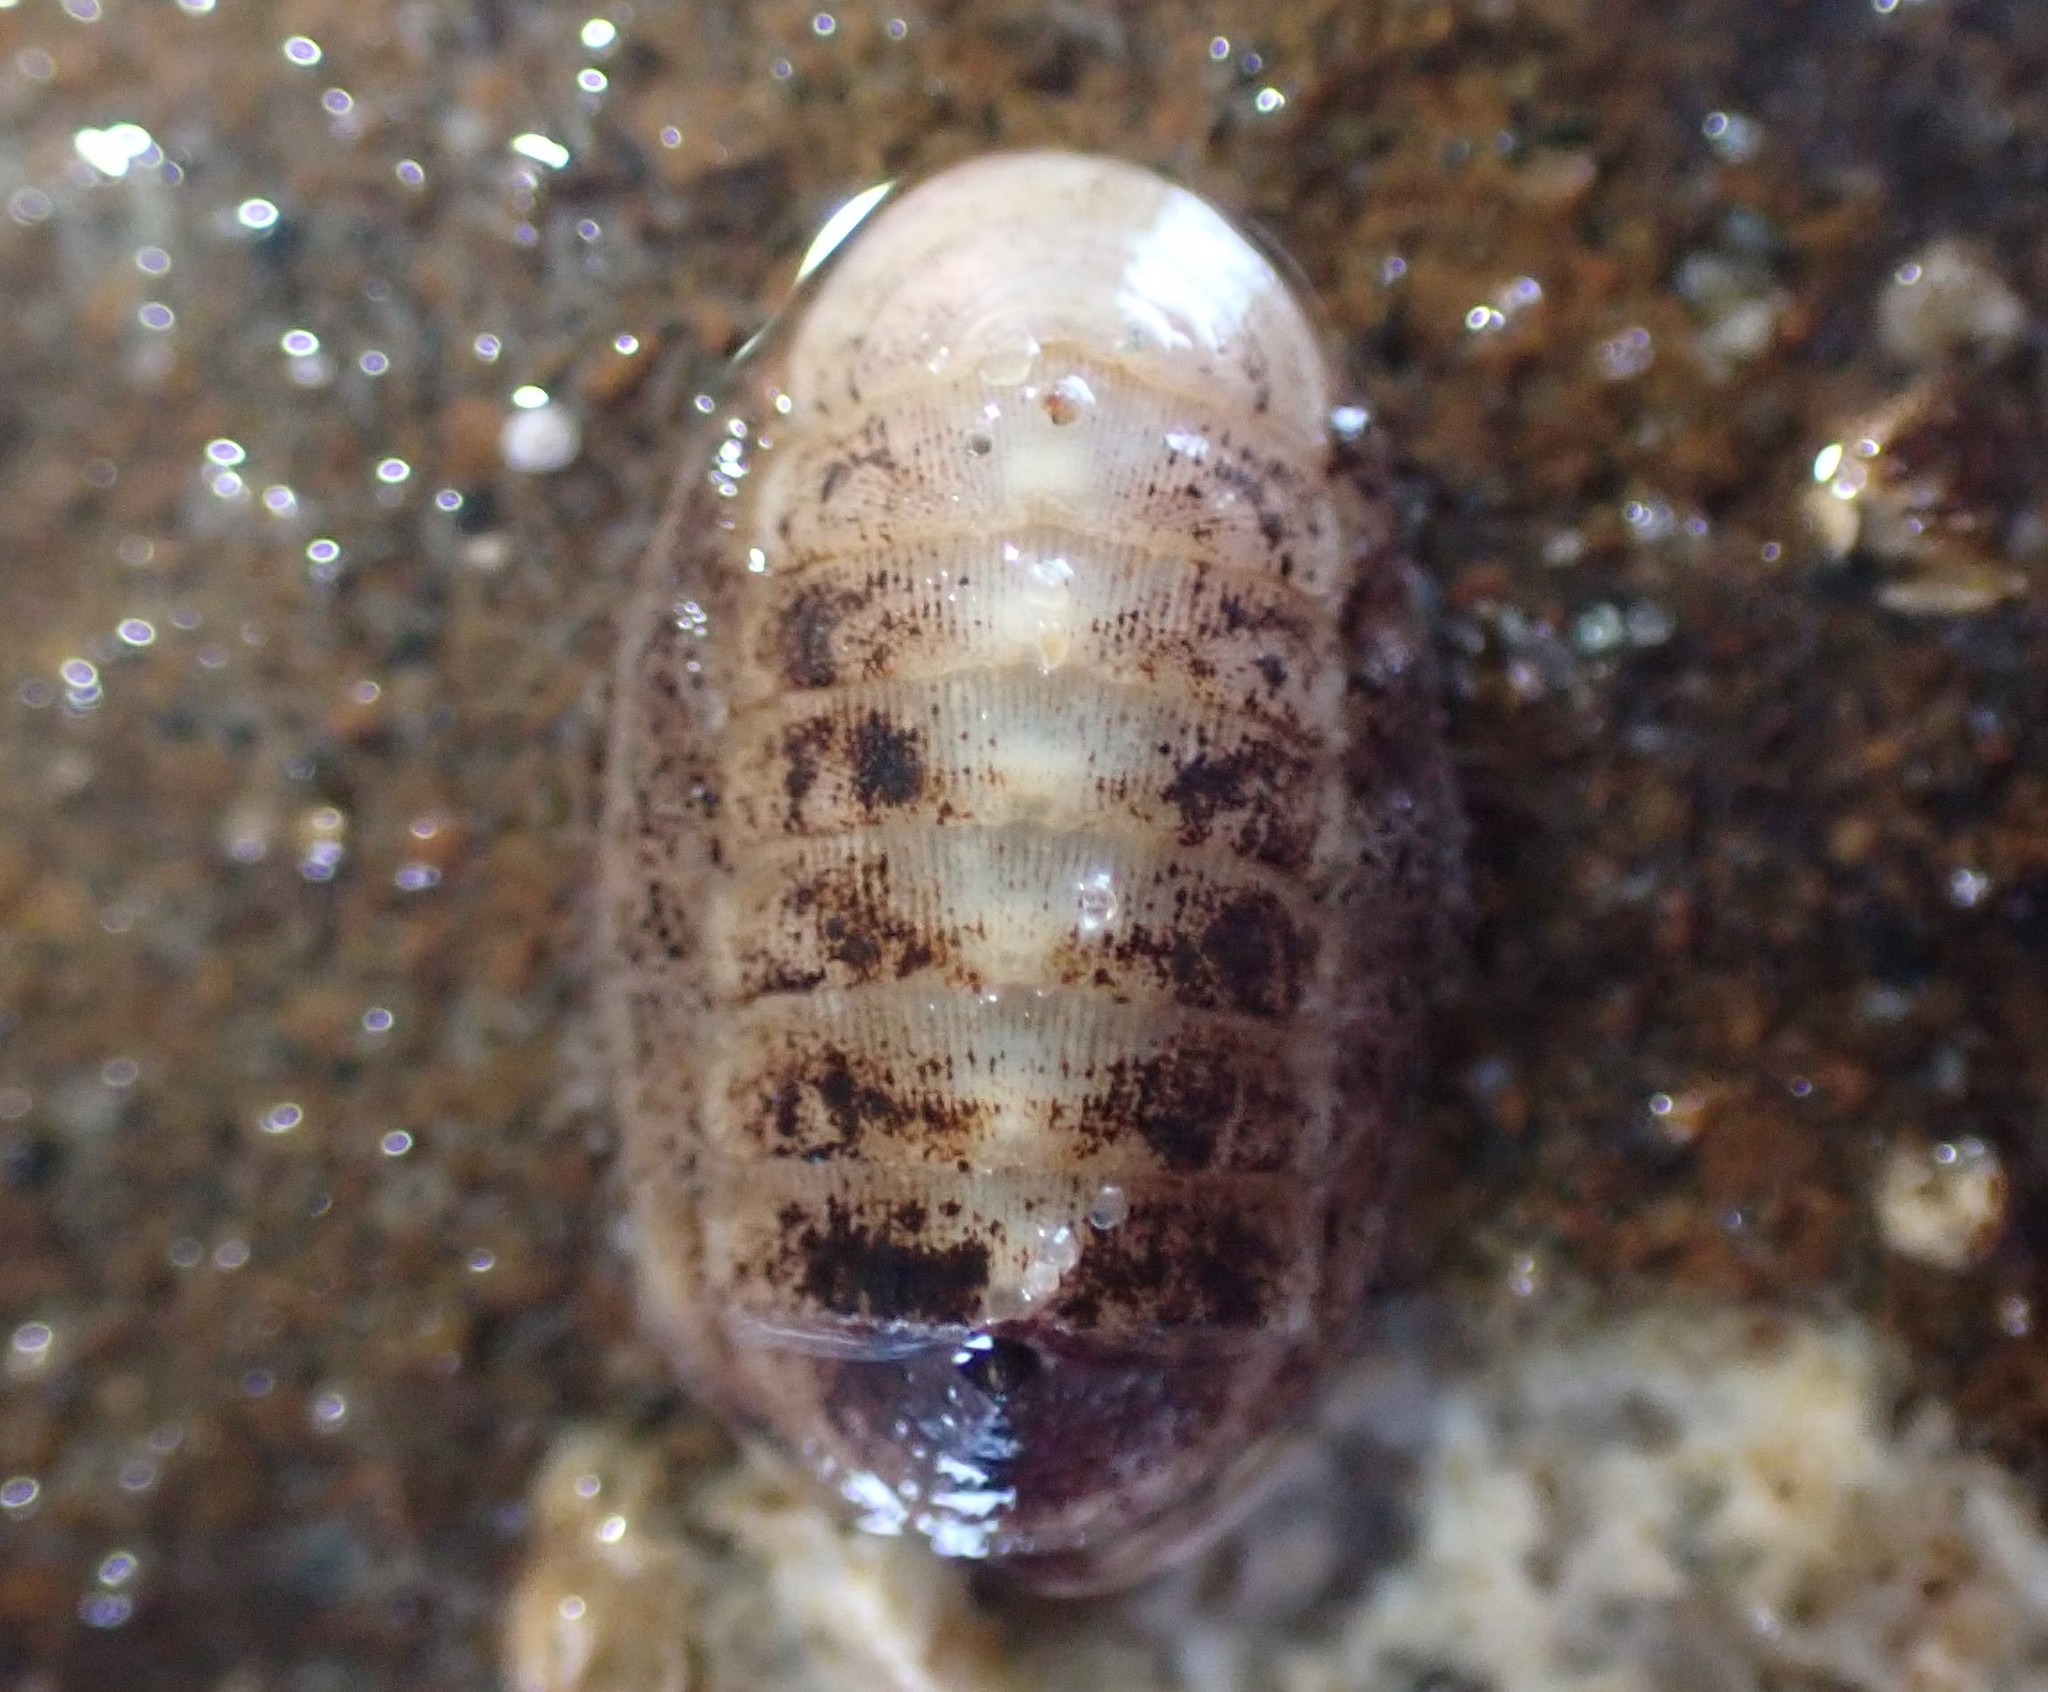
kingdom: Animalia
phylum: Mollusca
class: Polyplacophora
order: Lepidopleurida
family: Leptochitonidae
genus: Leptochiton
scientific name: Leptochiton inquinatus
